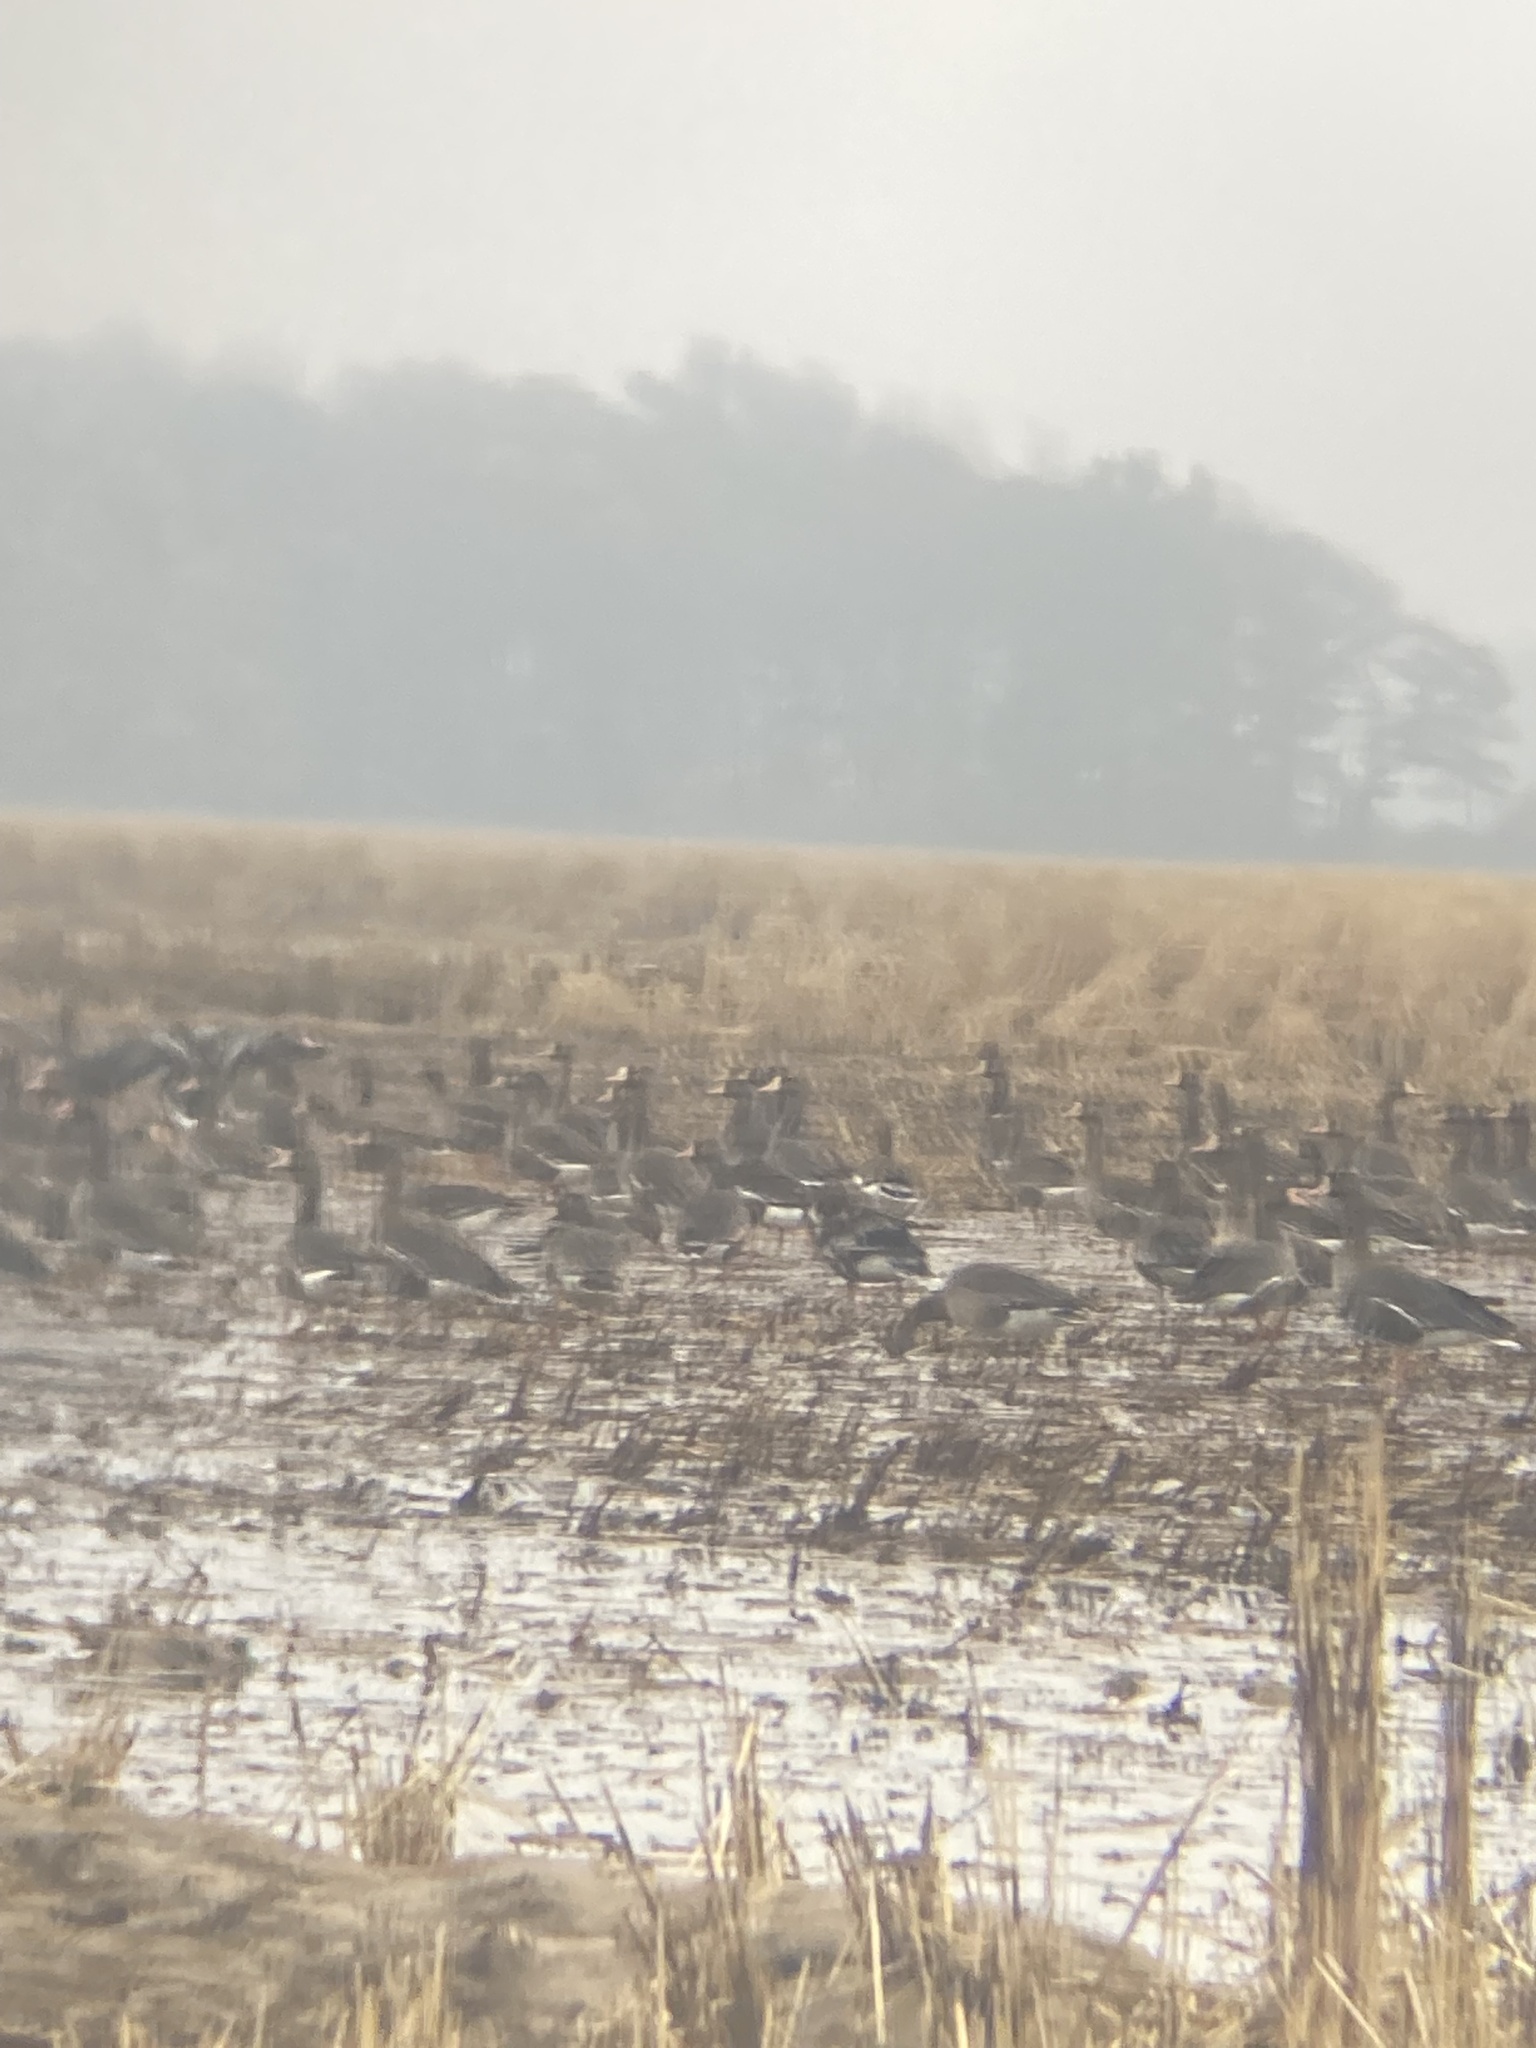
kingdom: Animalia
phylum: Chordata
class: Aves
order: Anseriformes
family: Anatidae
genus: Anser
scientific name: Anser albifrons
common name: Greater white-fronted goose
